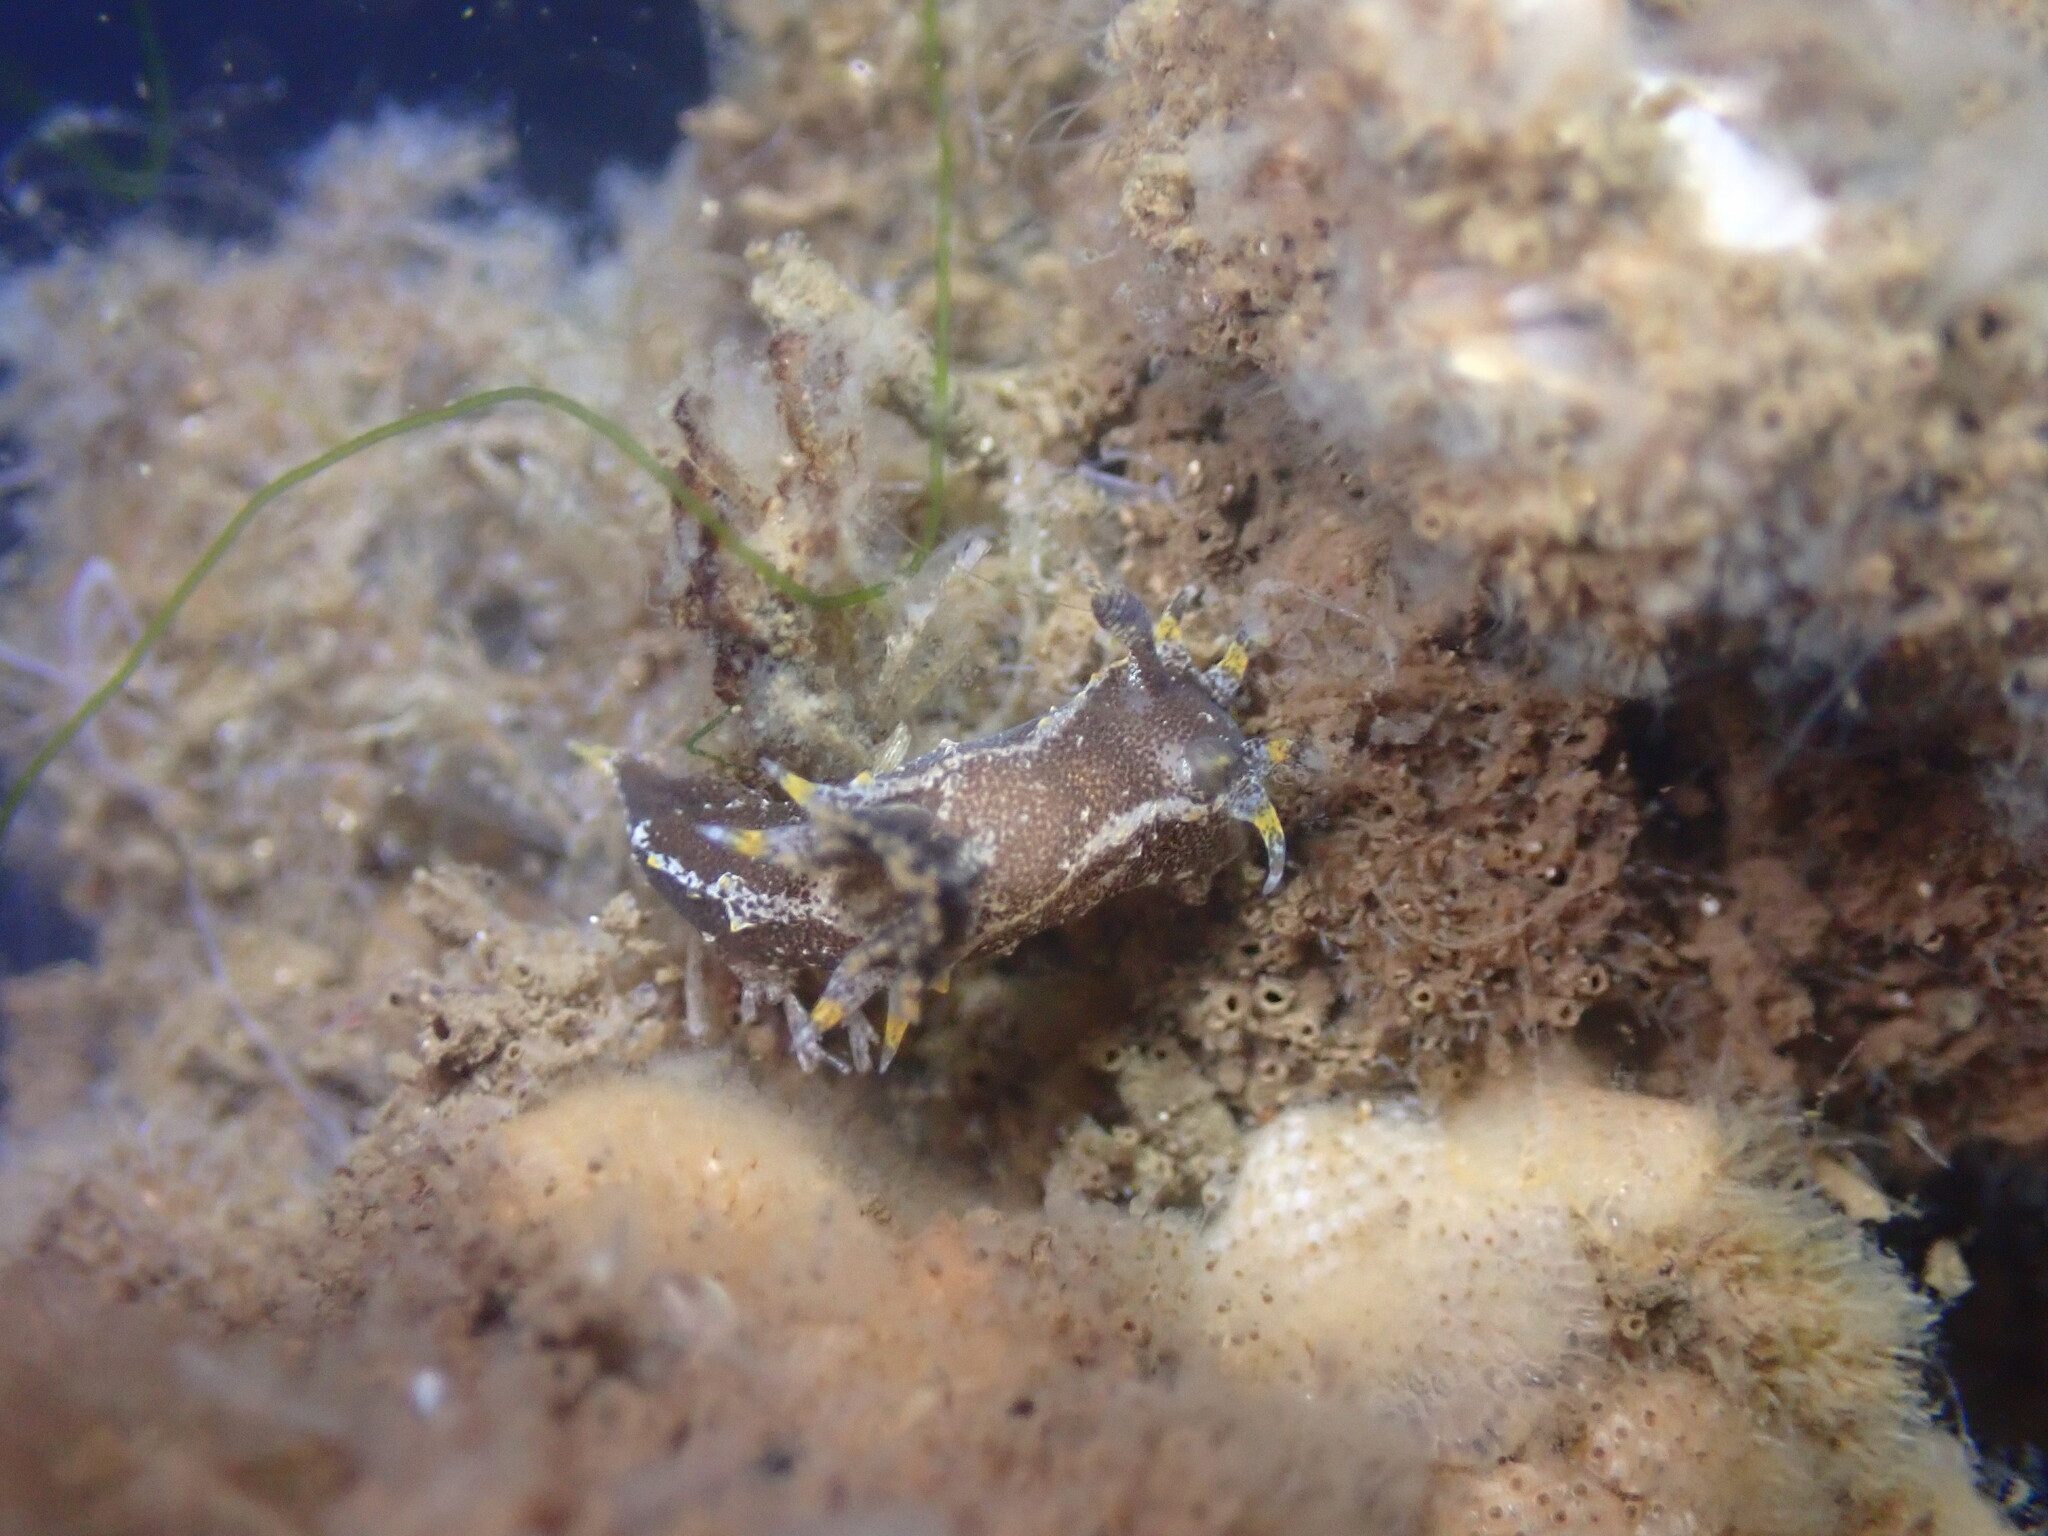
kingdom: Animalia
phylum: Mollusca
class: Gastropoda
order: Nudibranchia
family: Polyceridae
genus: Polycera
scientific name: Polycera hedgpethi
